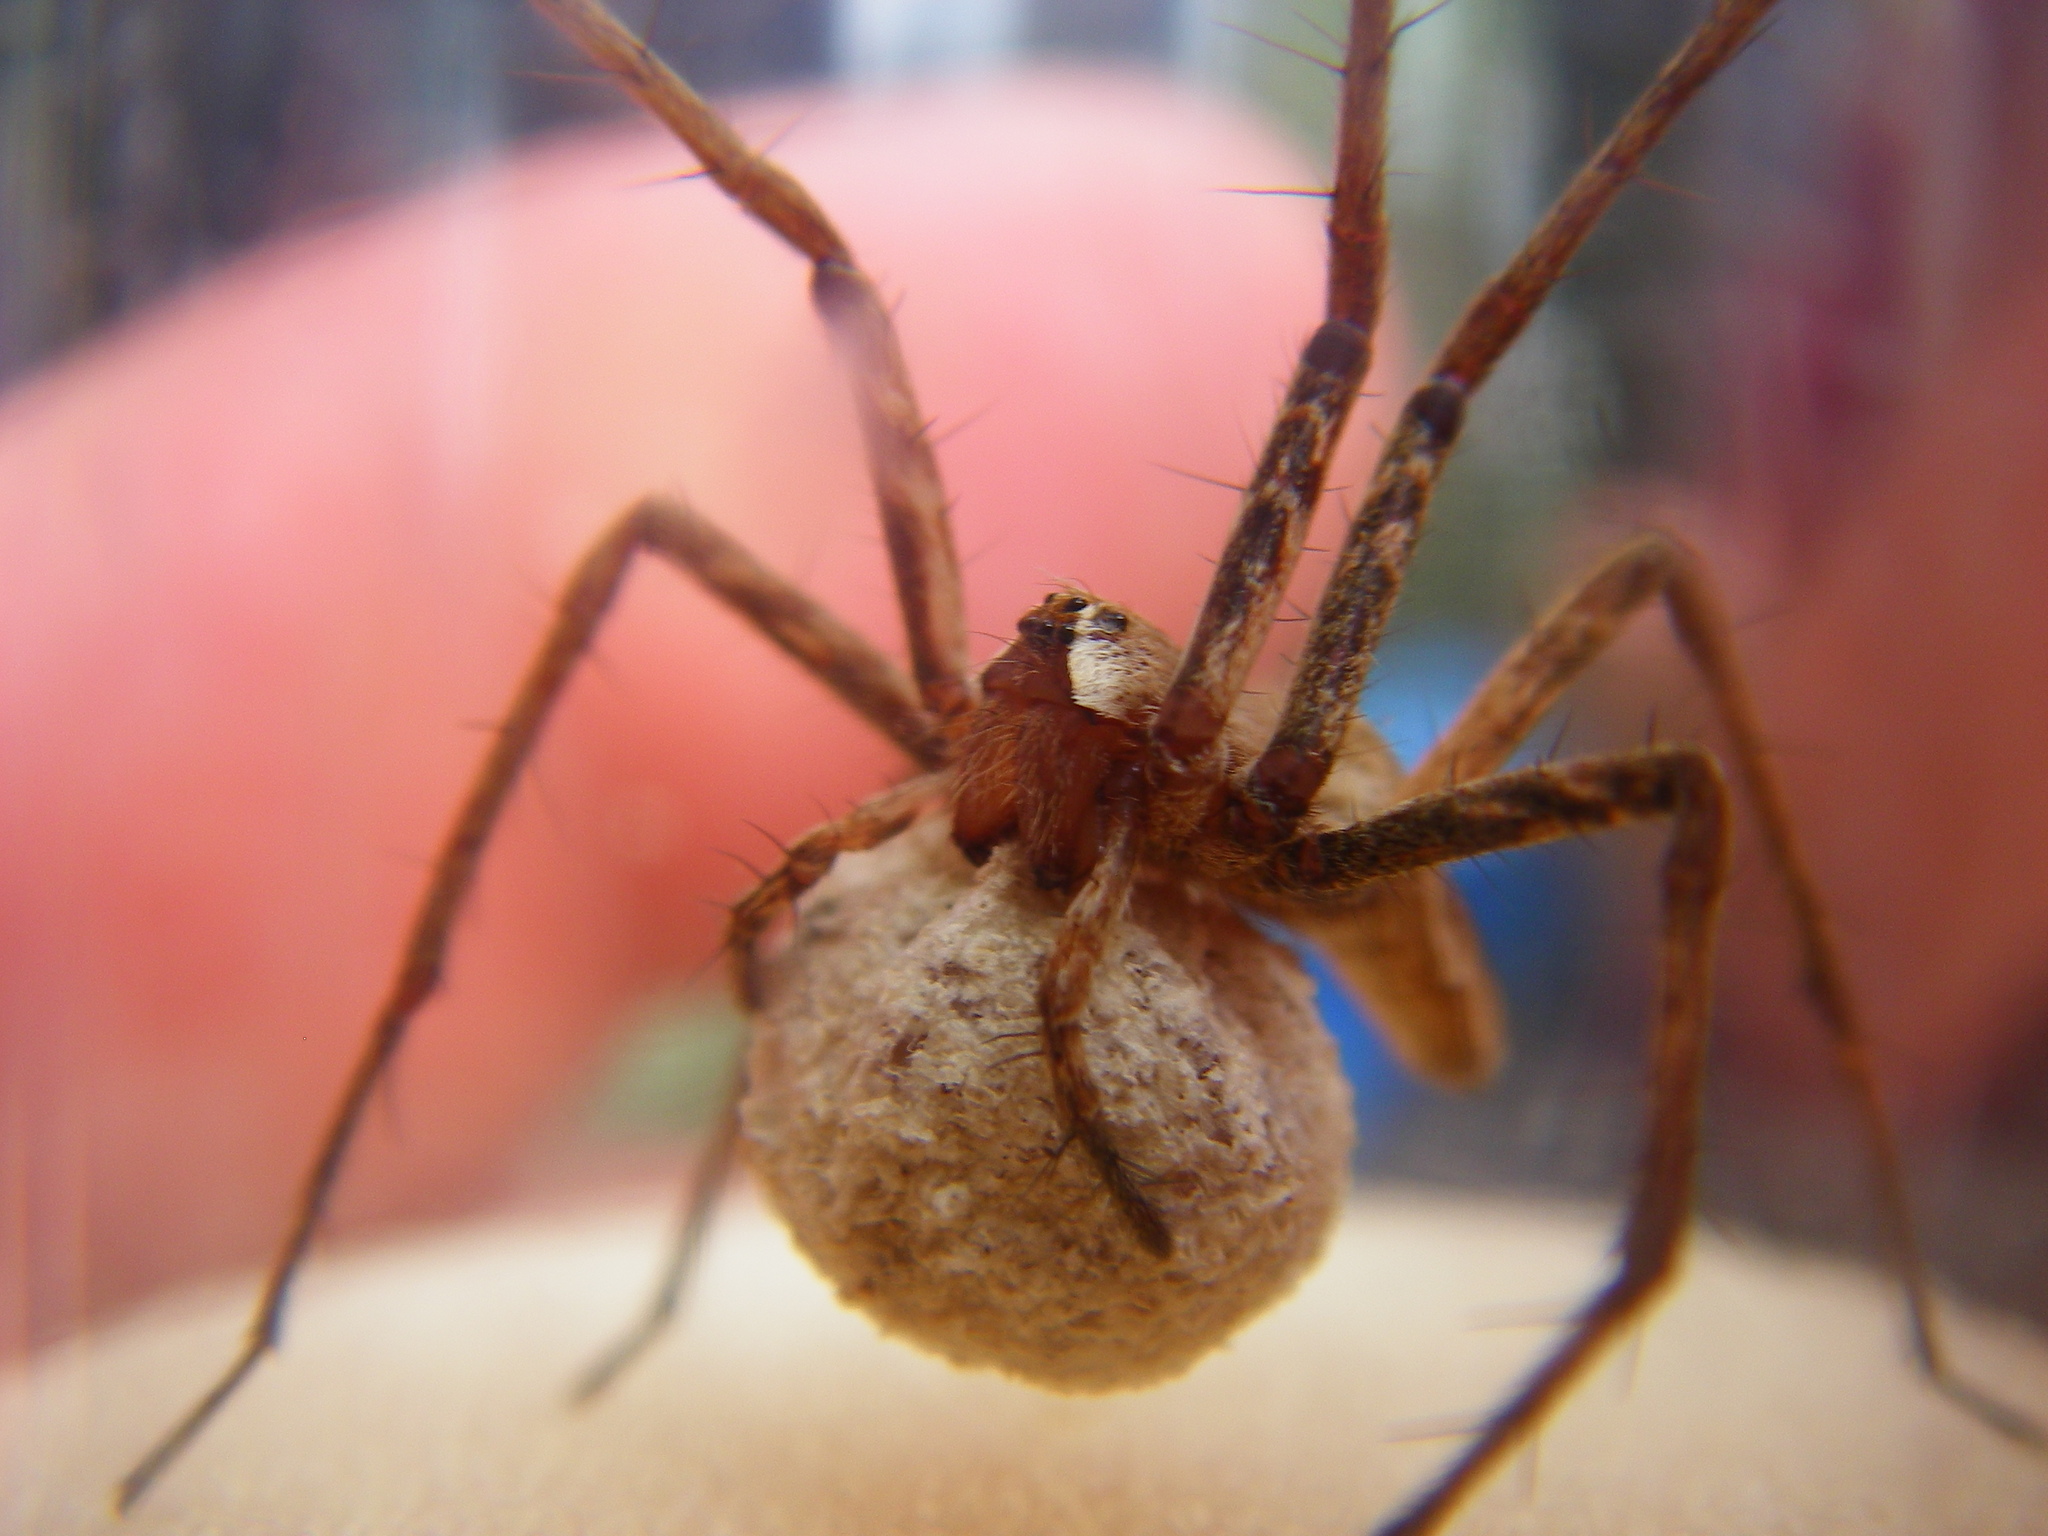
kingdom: Animalia
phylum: Arthropoda
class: Arachnida
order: Araneae
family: Pisauridae
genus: Pisaura
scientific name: Pisaura mirabilis
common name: Tent spider
